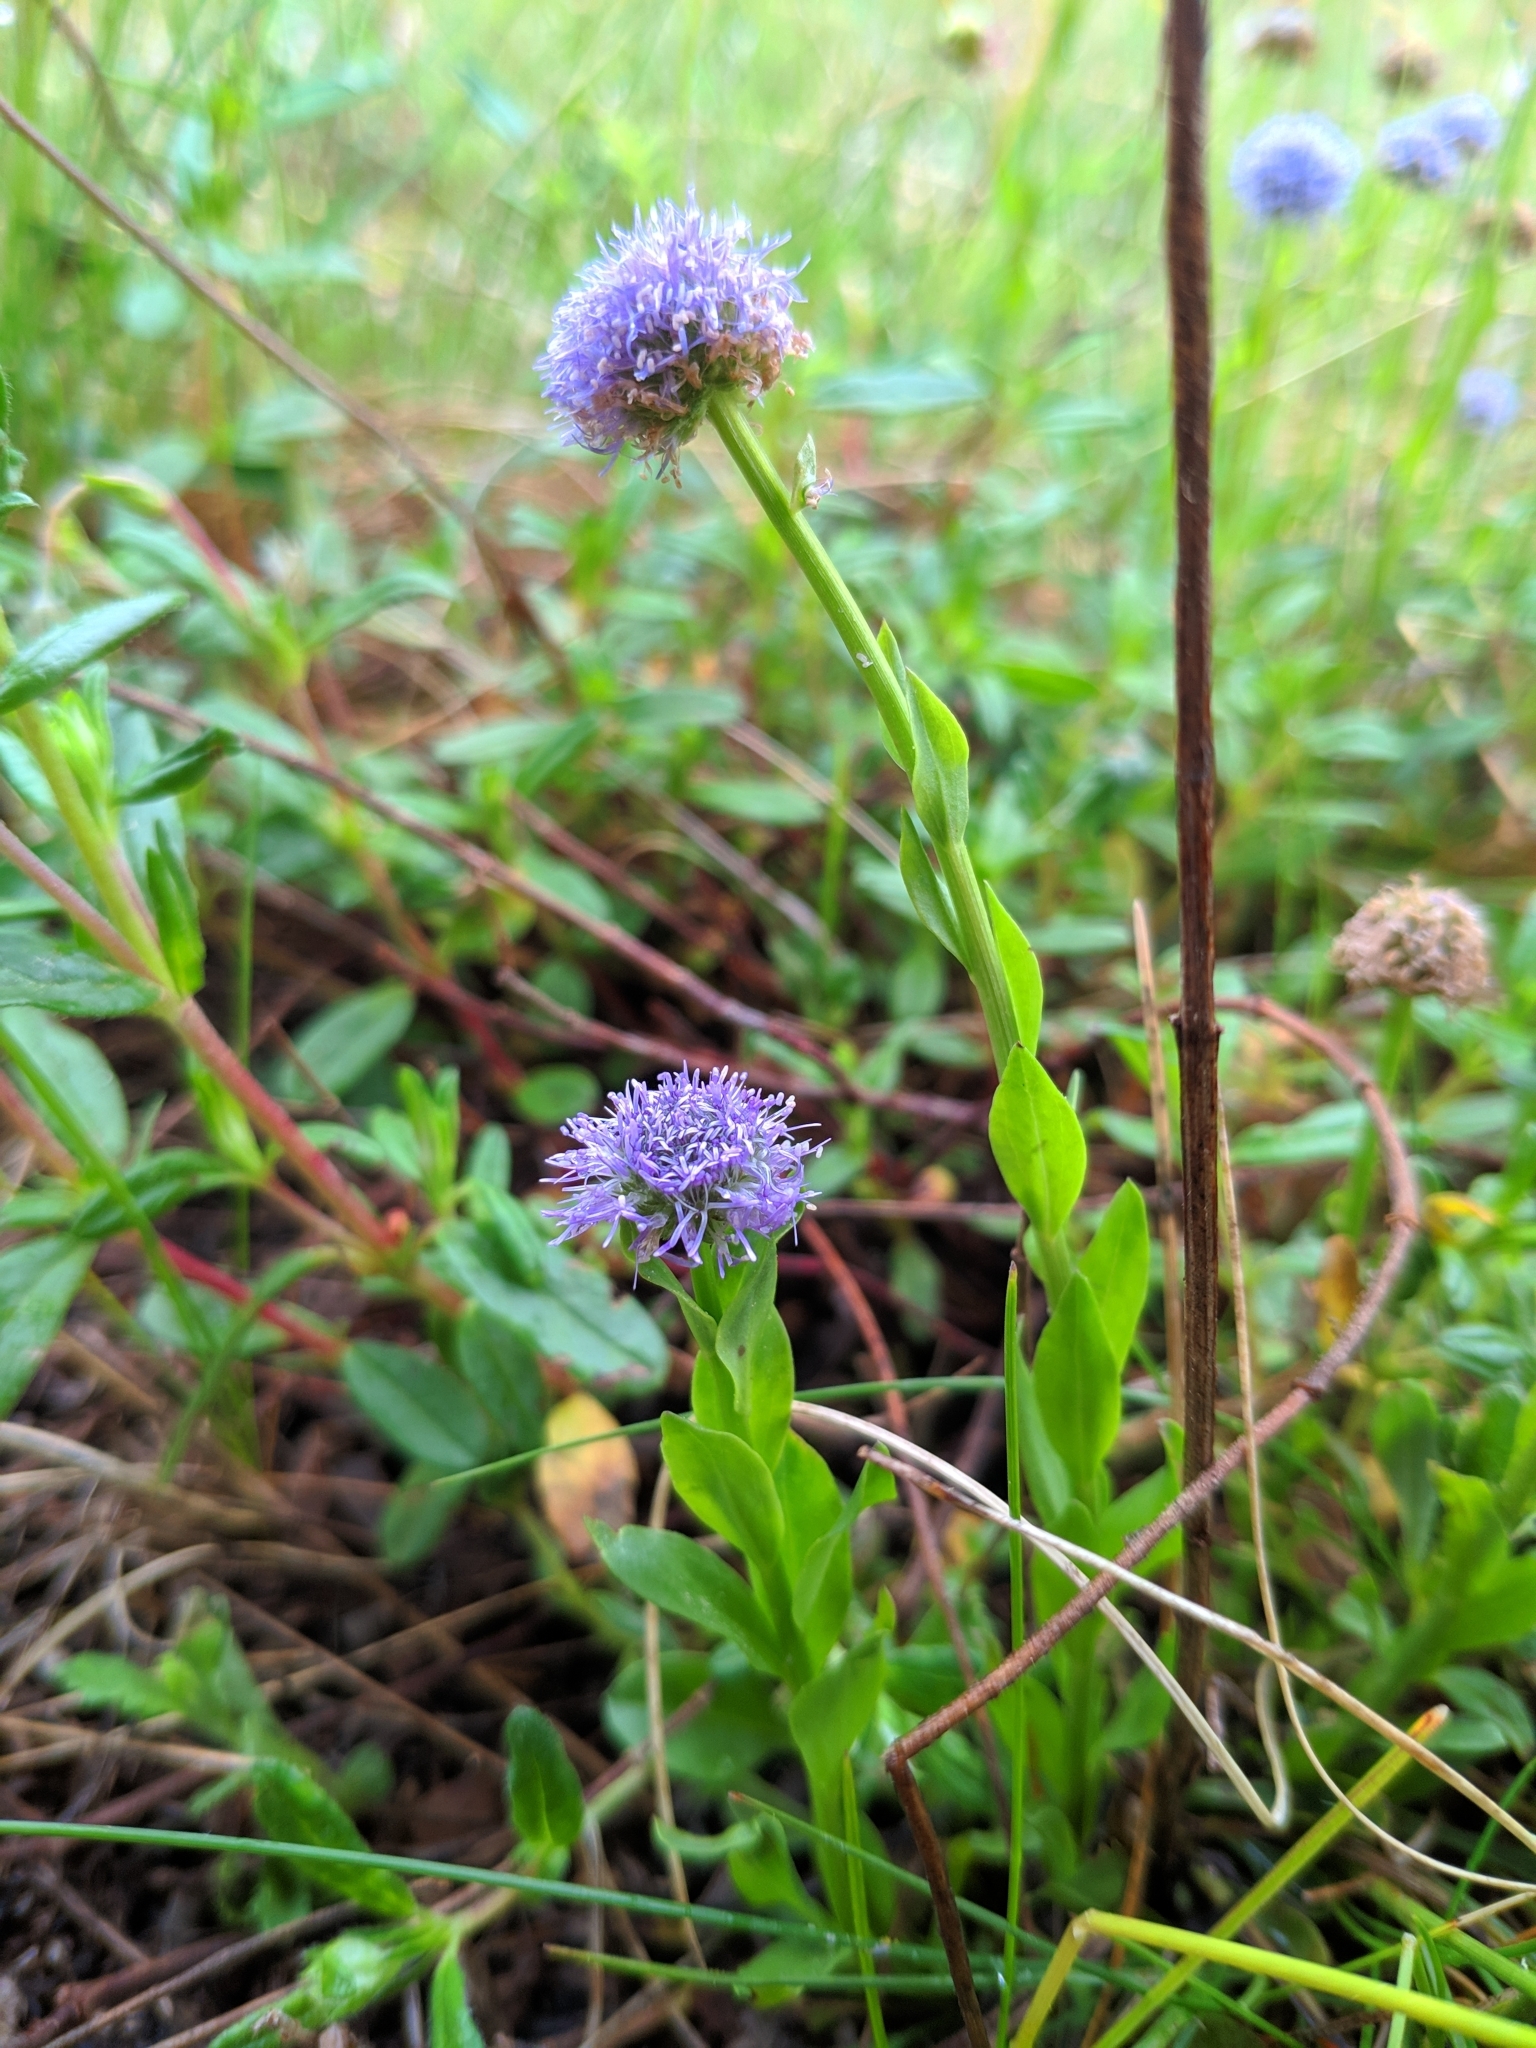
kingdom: Plantae
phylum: Tracheophyta
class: Magnoliopsida
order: Lamiales
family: Plantaginaceae
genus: Globularia
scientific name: Globularia bisnagarica
